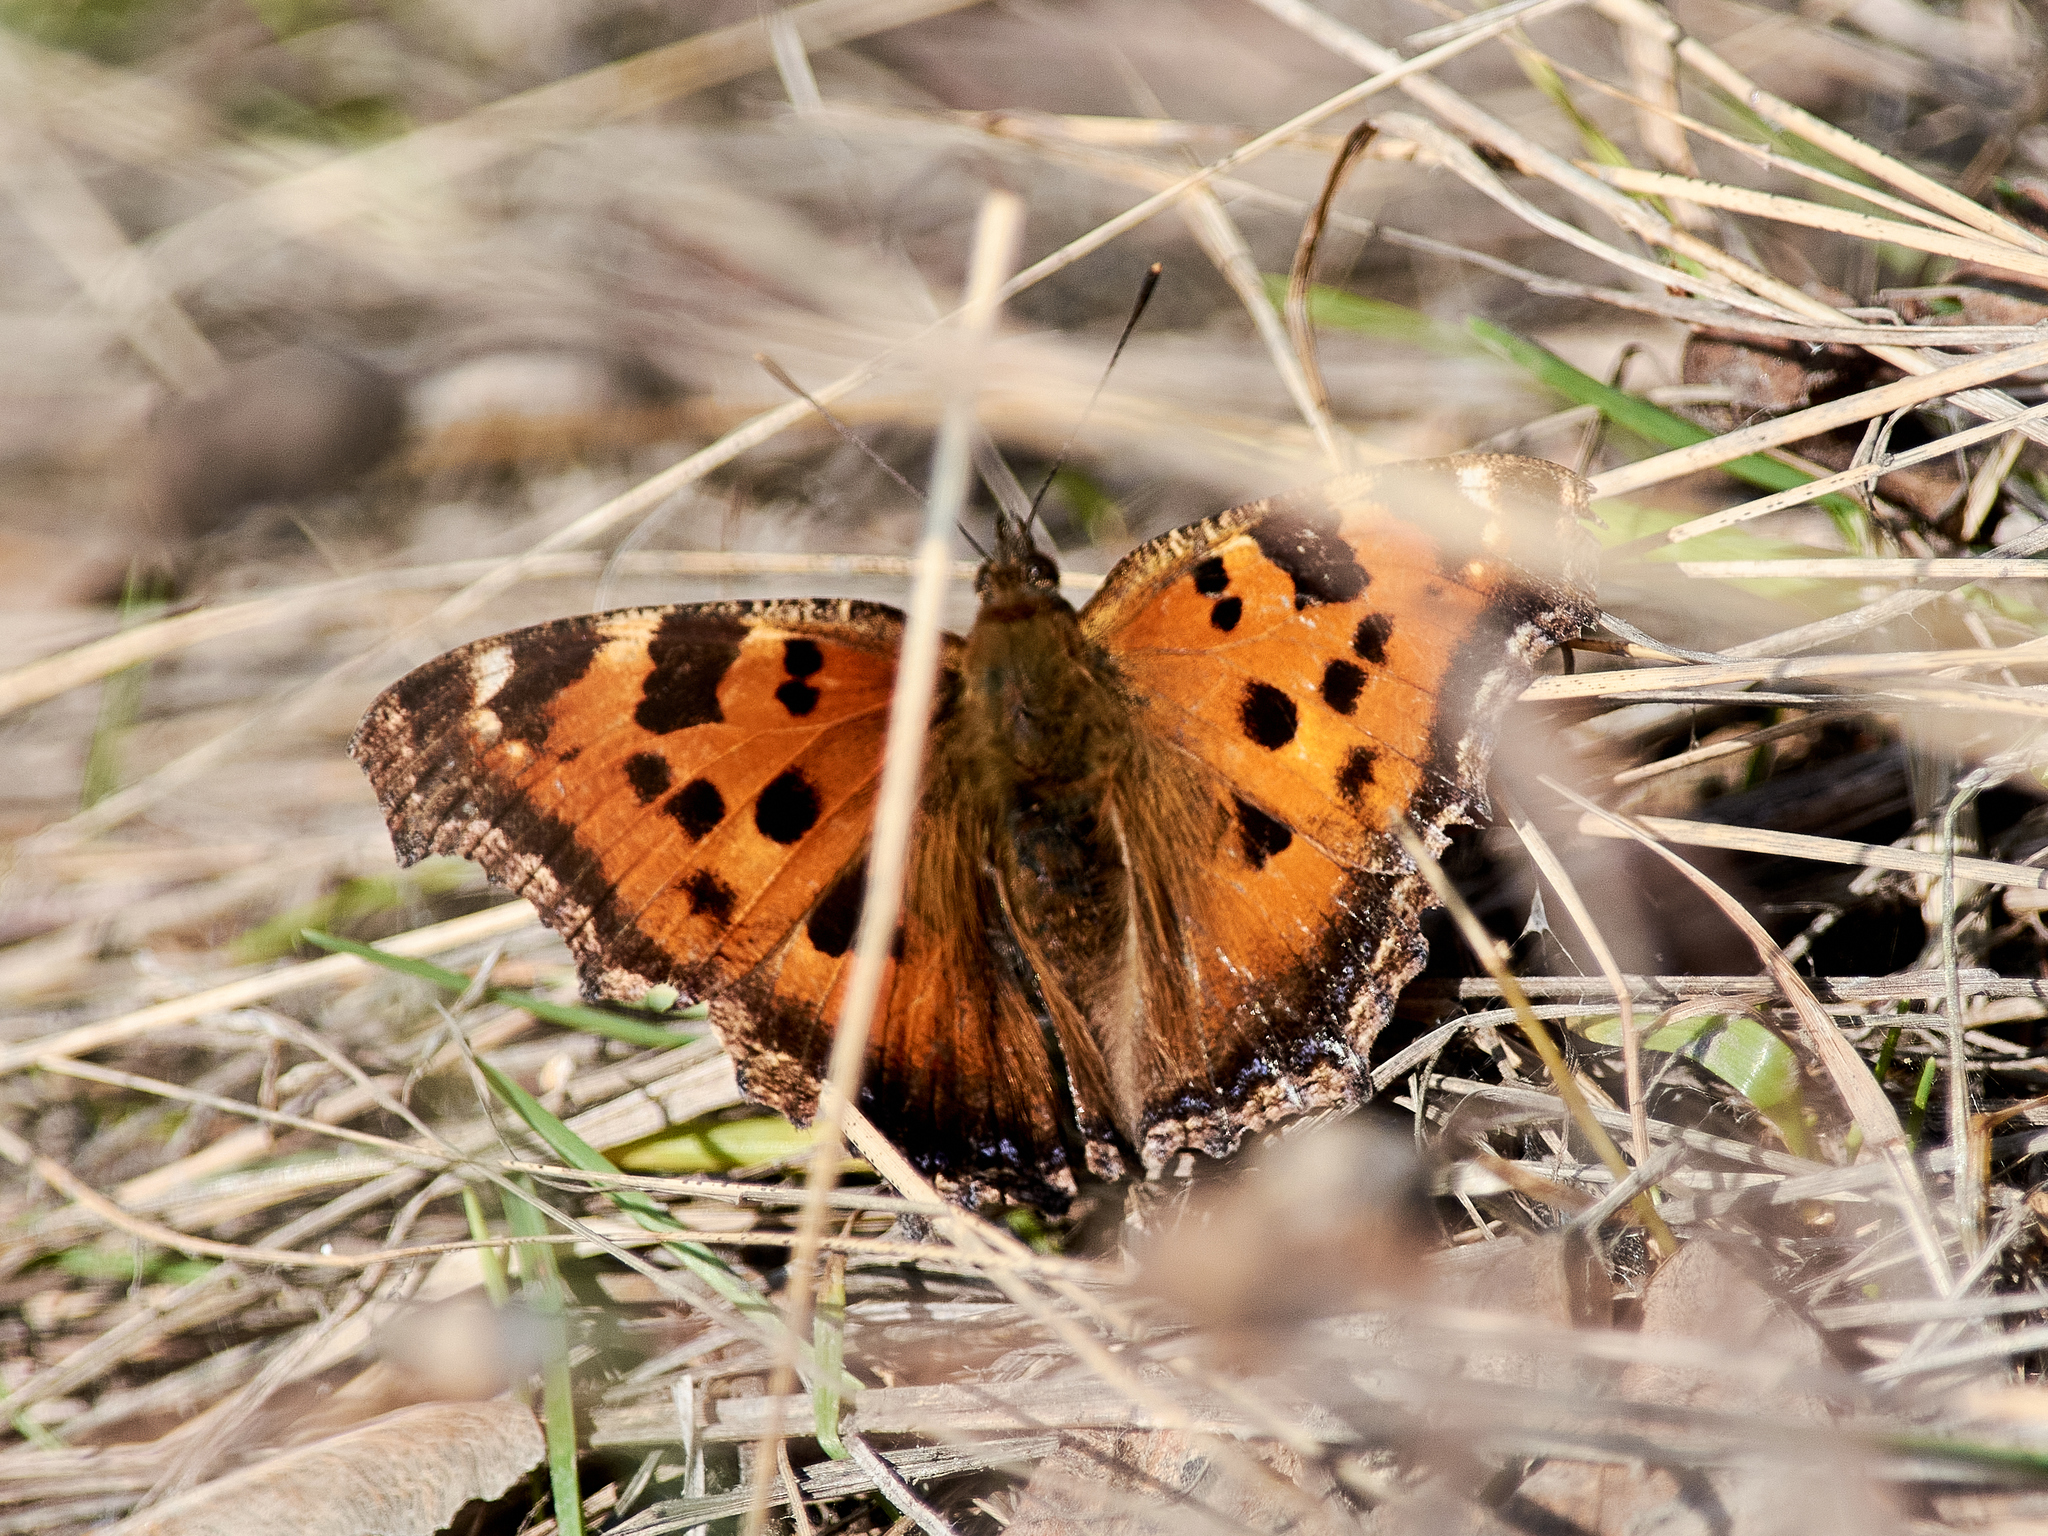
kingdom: Animalia
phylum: Arthropoda
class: Insecta
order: Lepidoptera
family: Nymphalidae
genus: Nymphalis
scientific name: Nymphalis xanthomelas
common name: Scarce tortoiseshell
